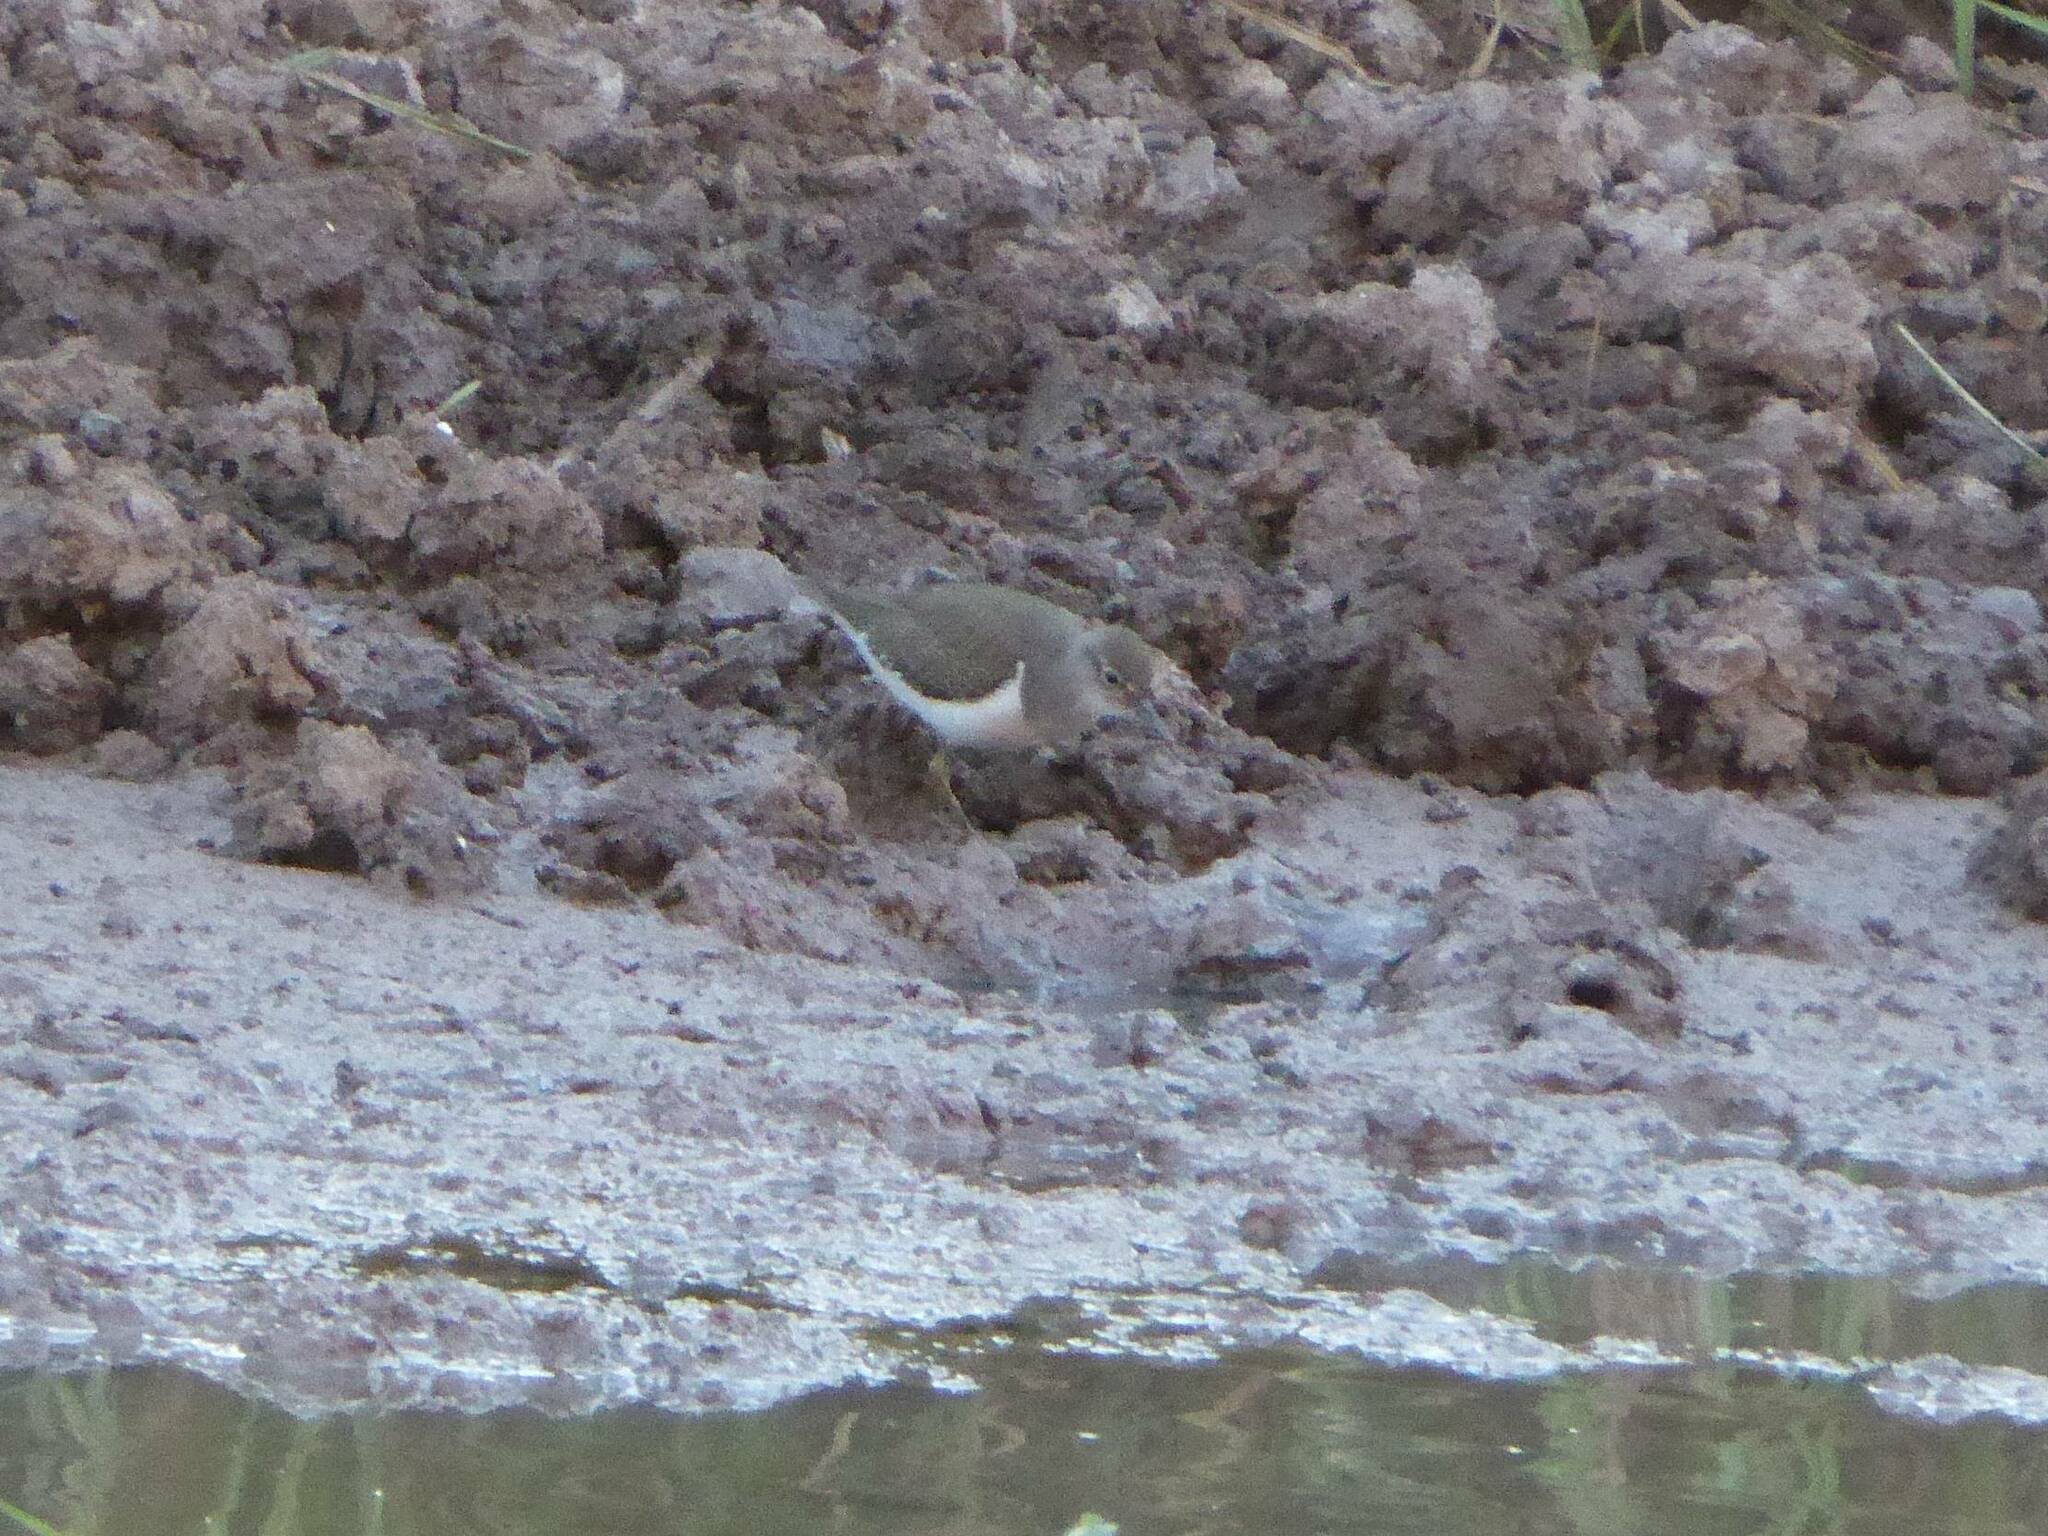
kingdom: Animalia
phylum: Chordata
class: Aves
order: Charadriiformes
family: Scolopacidae
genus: Actitis
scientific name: Actitis hypoleucos
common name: Common sandpiper
